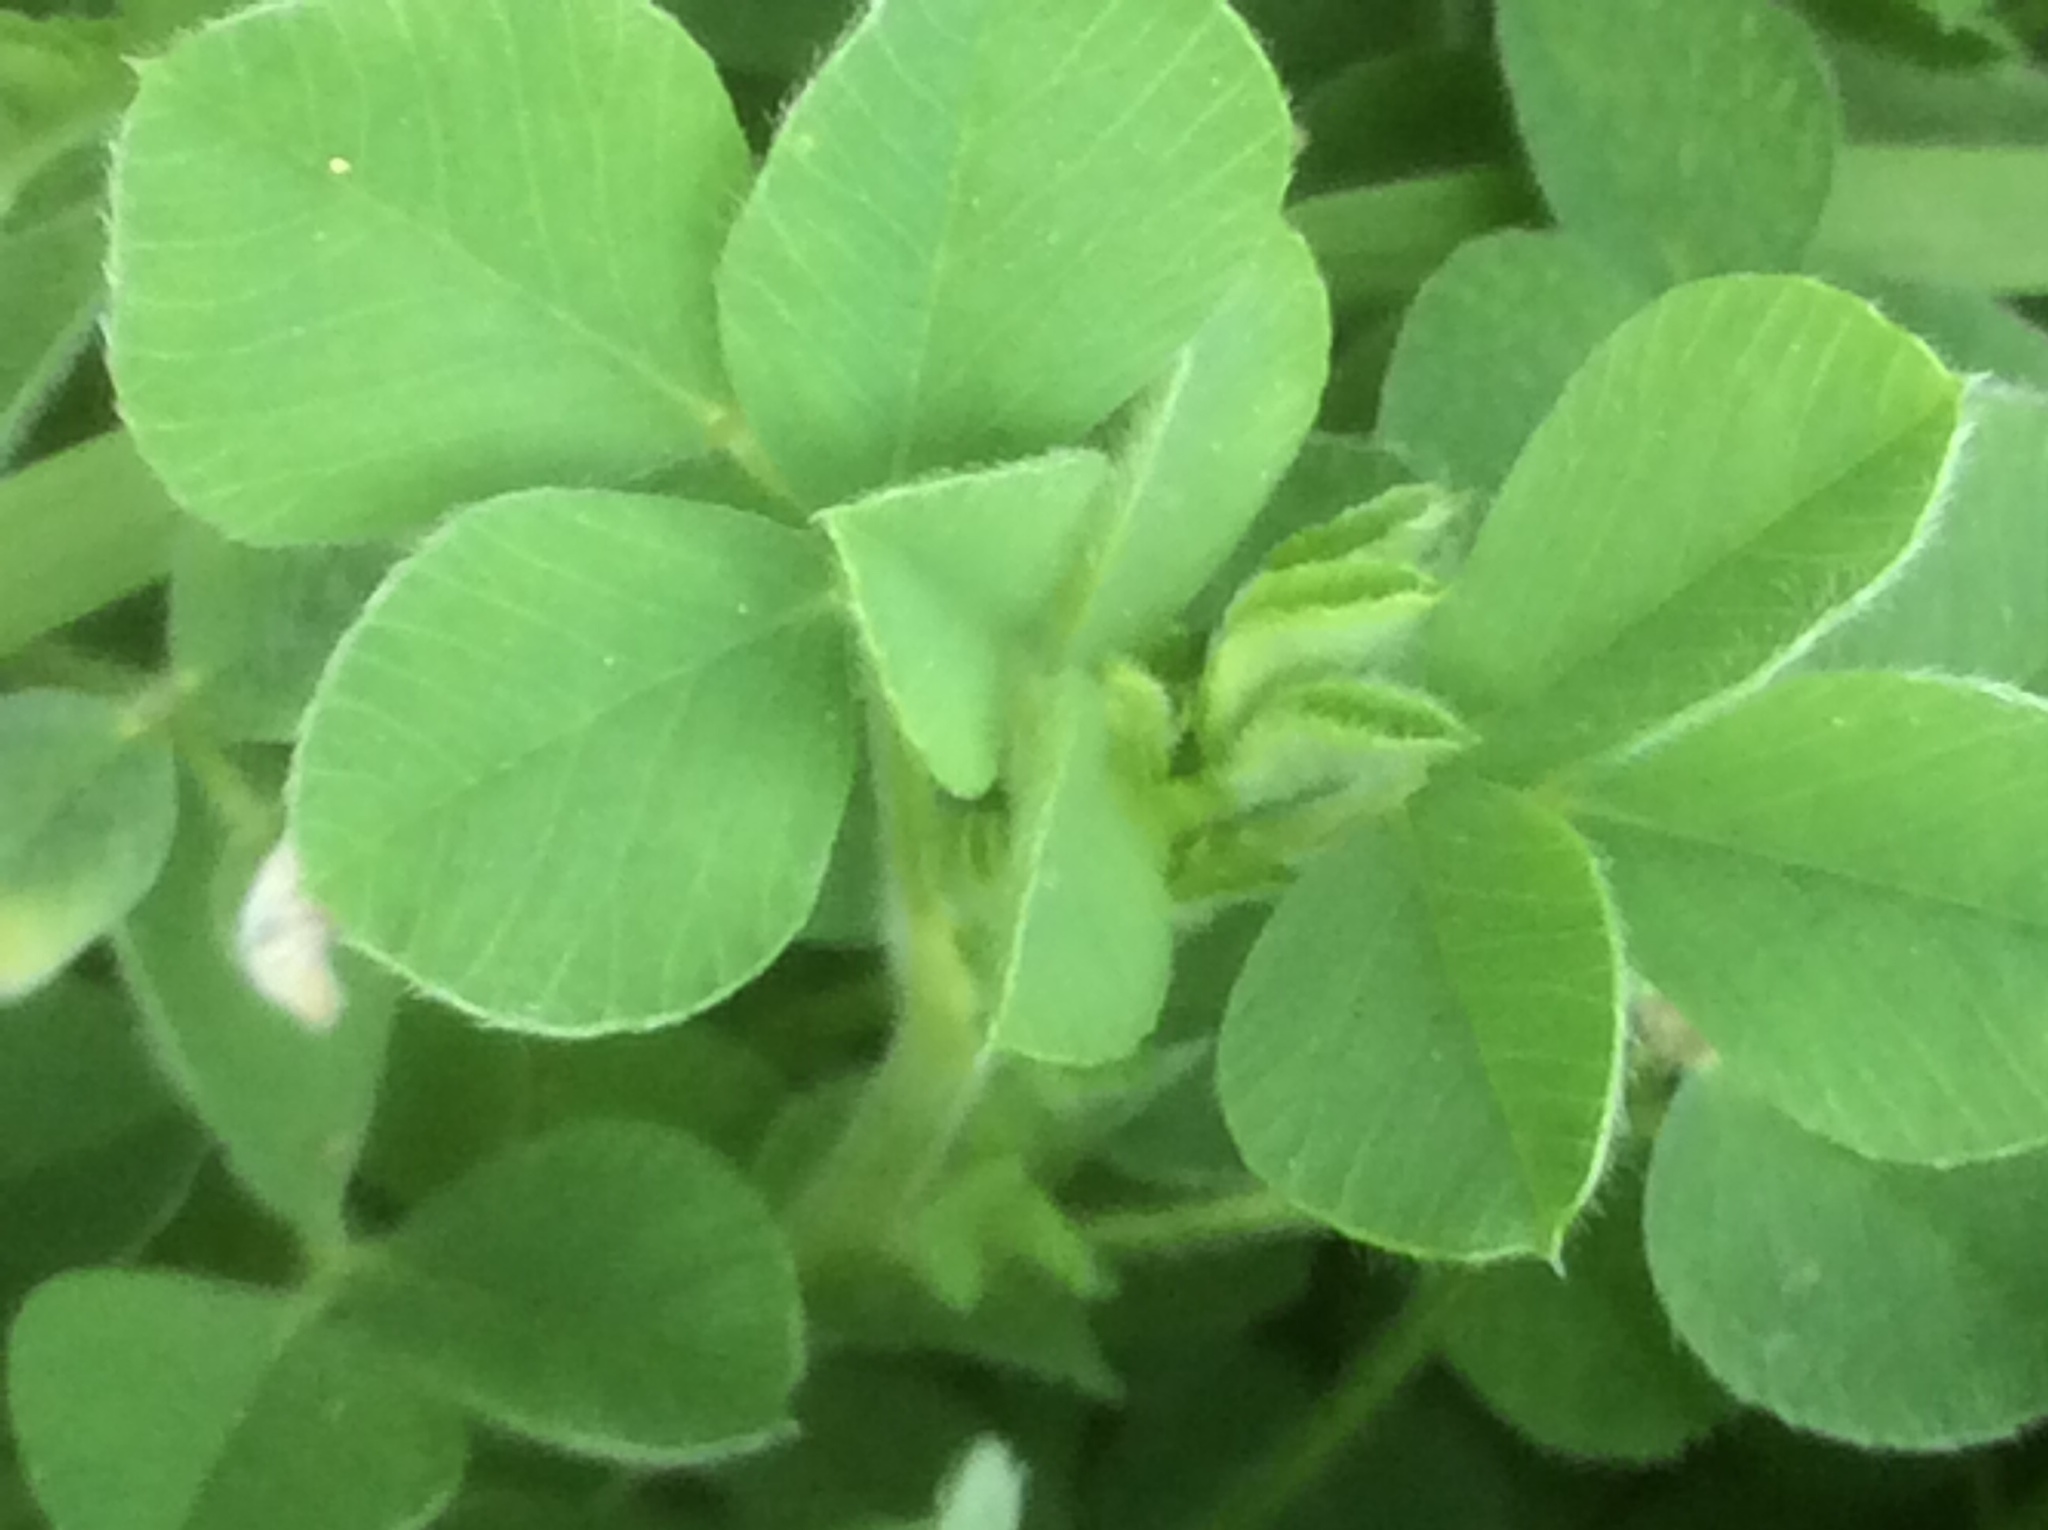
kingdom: Plantae
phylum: Tracheophyta
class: Magnoliopsida
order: Fabales
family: Fabaceae
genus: Medicago
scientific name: Medicago minima
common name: Little bur-clover
